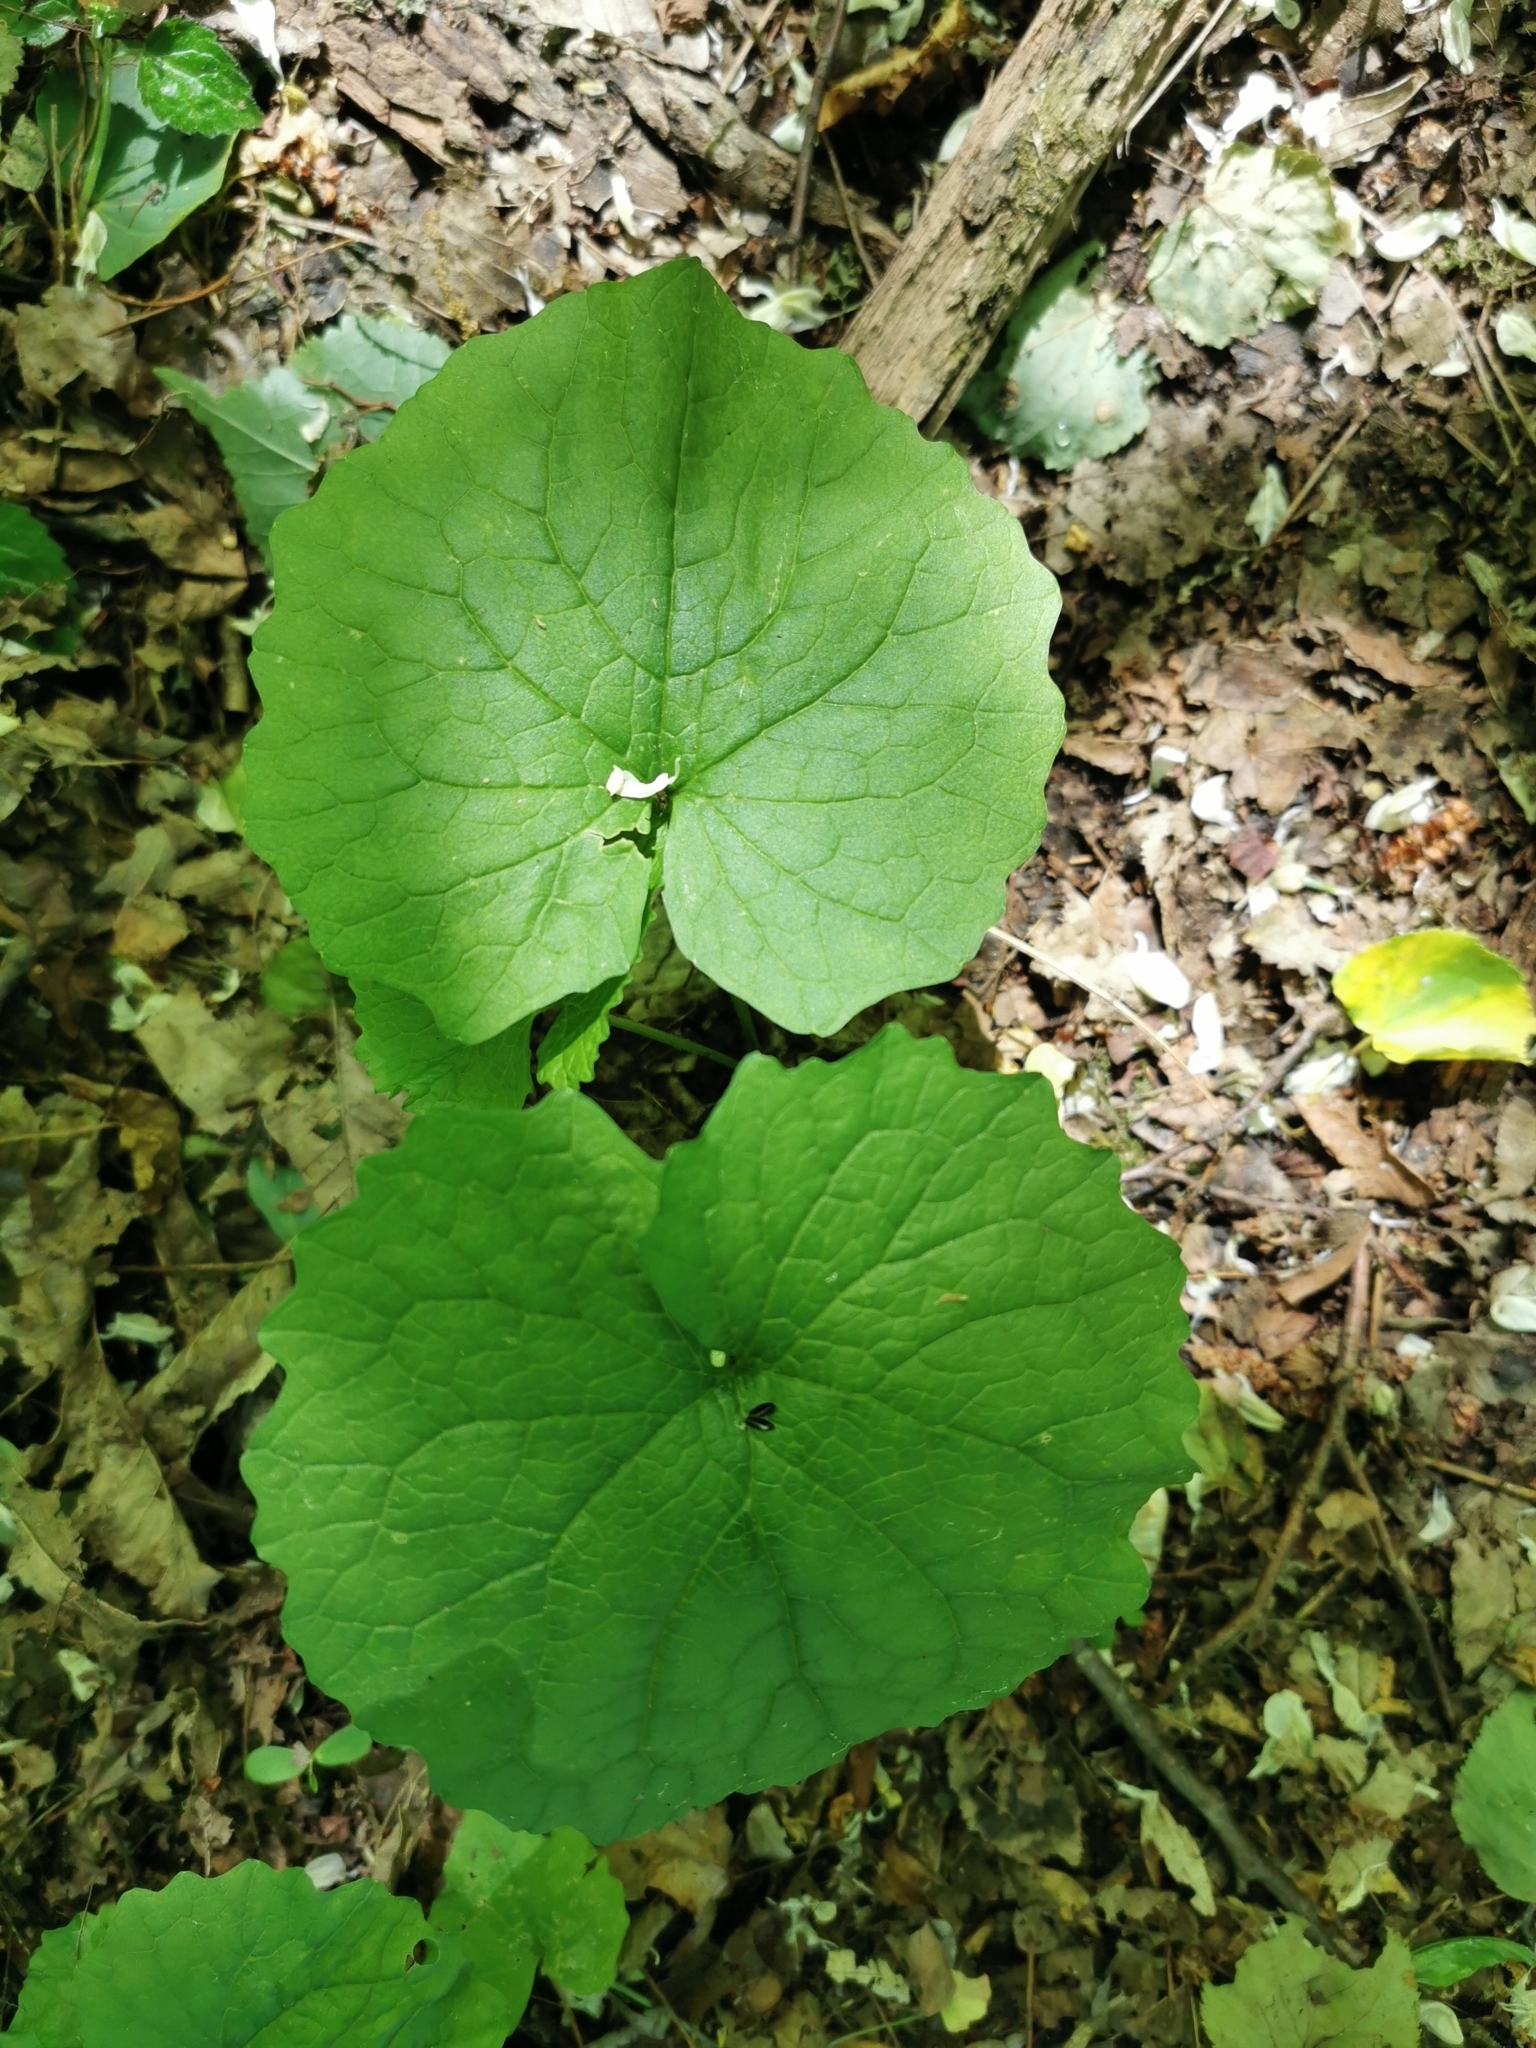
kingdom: Plantae
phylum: Tracheophyta
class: Magnoliopsida
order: Brassicales
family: Brassicaceae
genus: Alliaria
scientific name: Alliaria petiolata
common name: Garlic mustard
